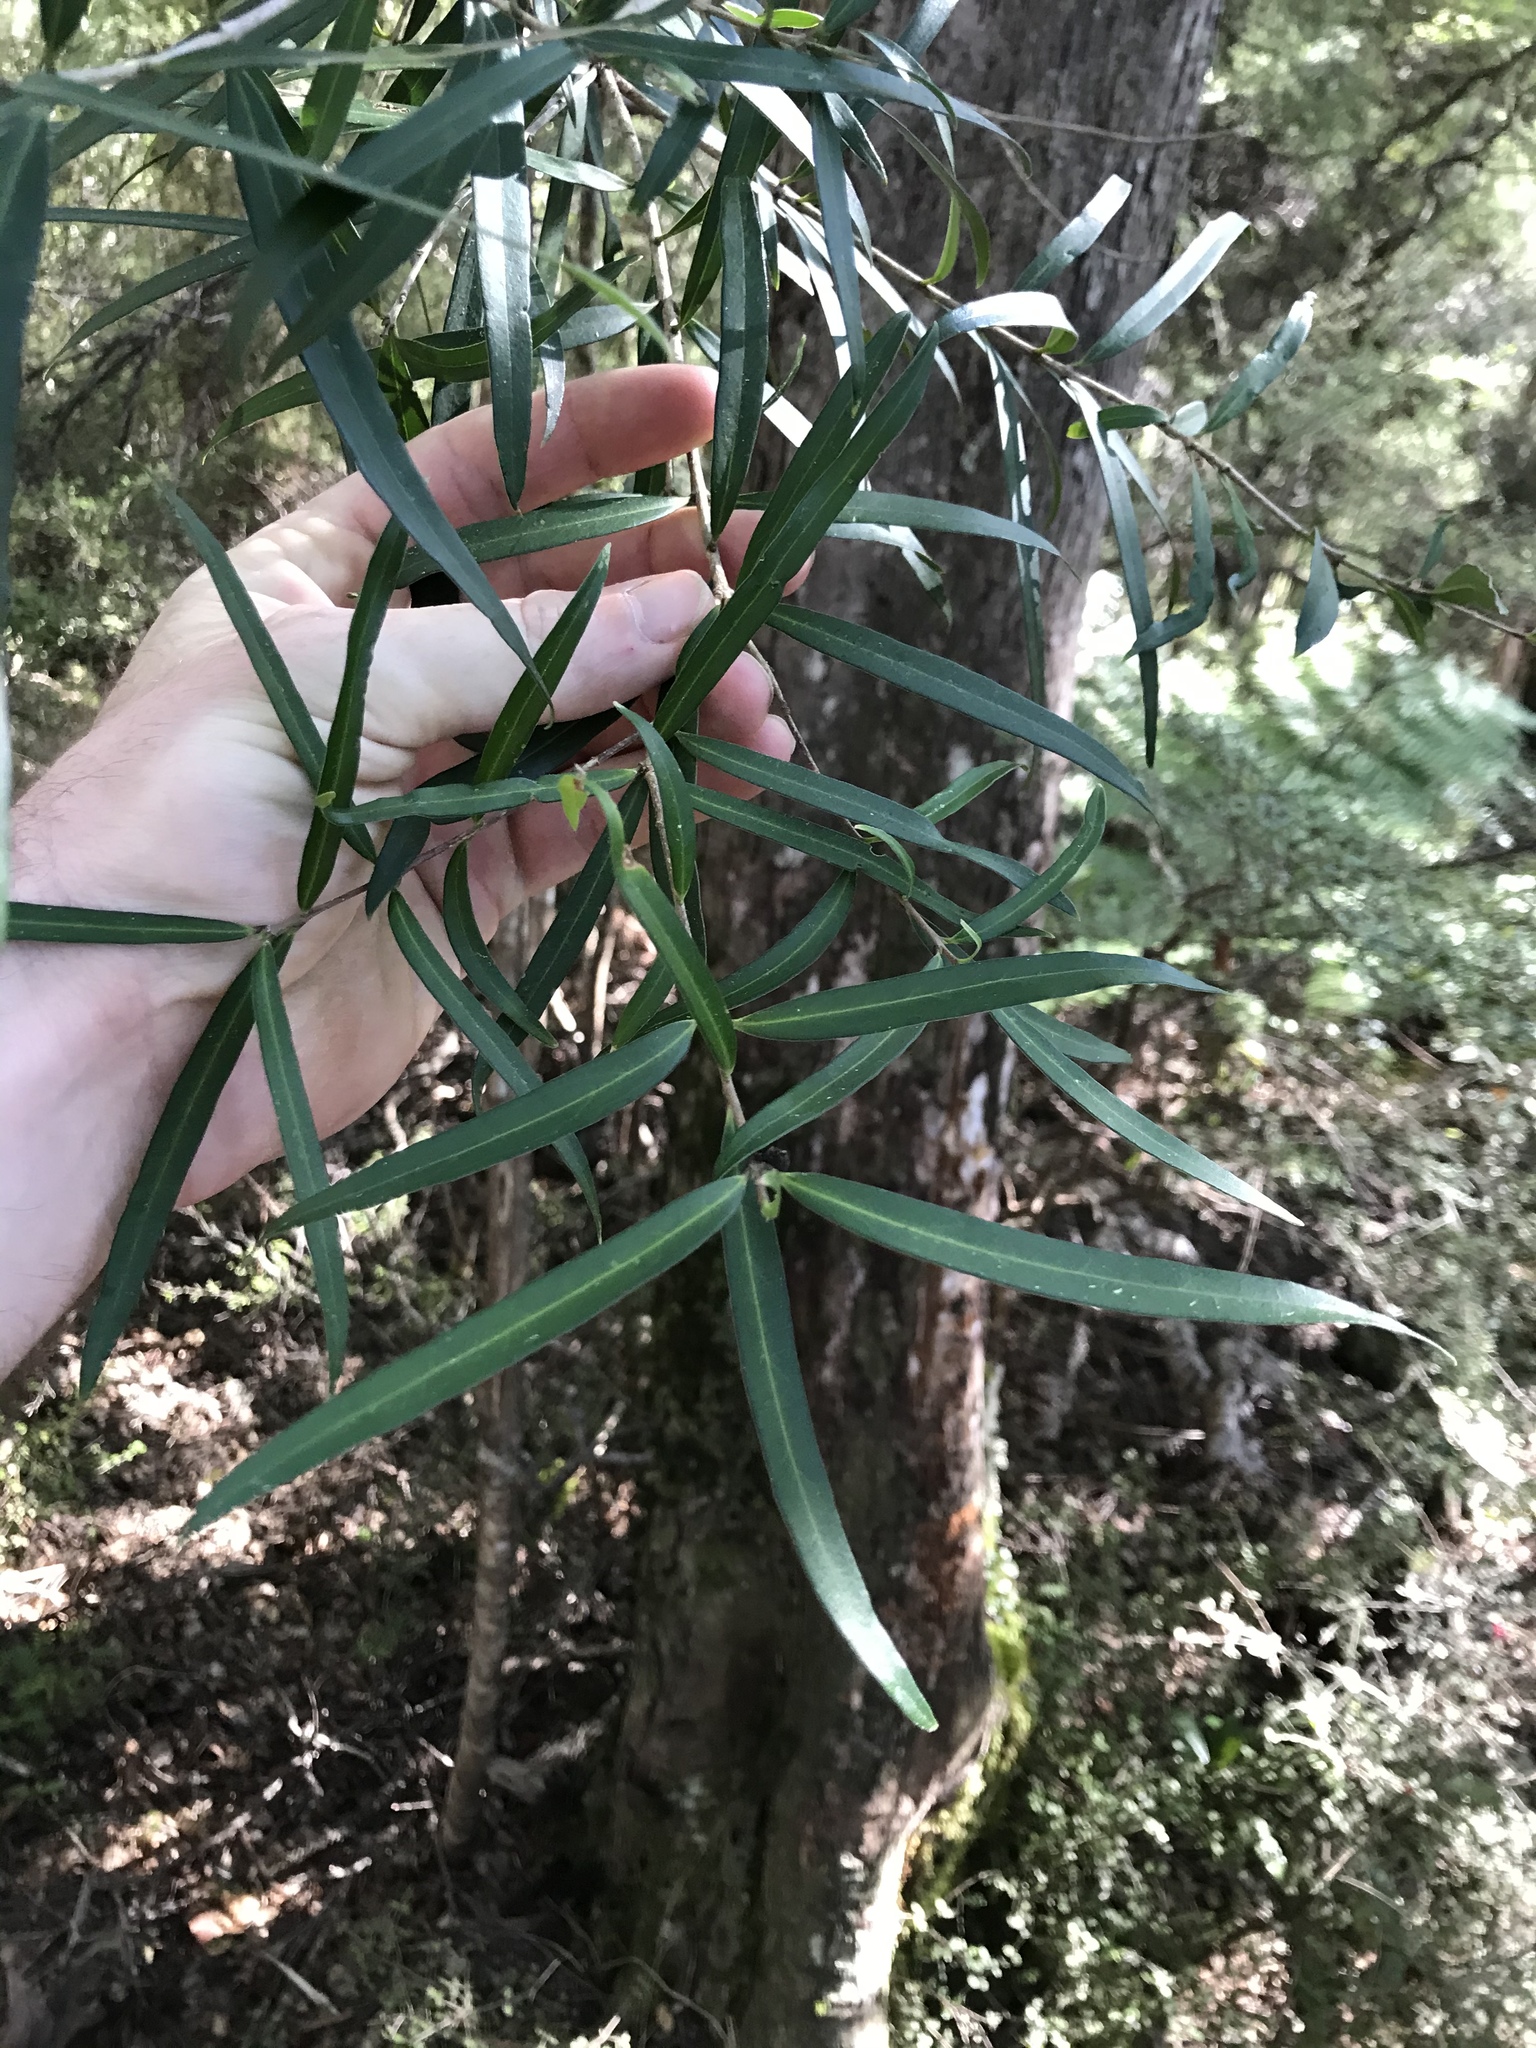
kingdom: Plantae
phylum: Tracheophyta
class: Magnoliopsida
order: Lamiales
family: Oleaceae
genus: Nestegis
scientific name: Nestegis lanceolata
